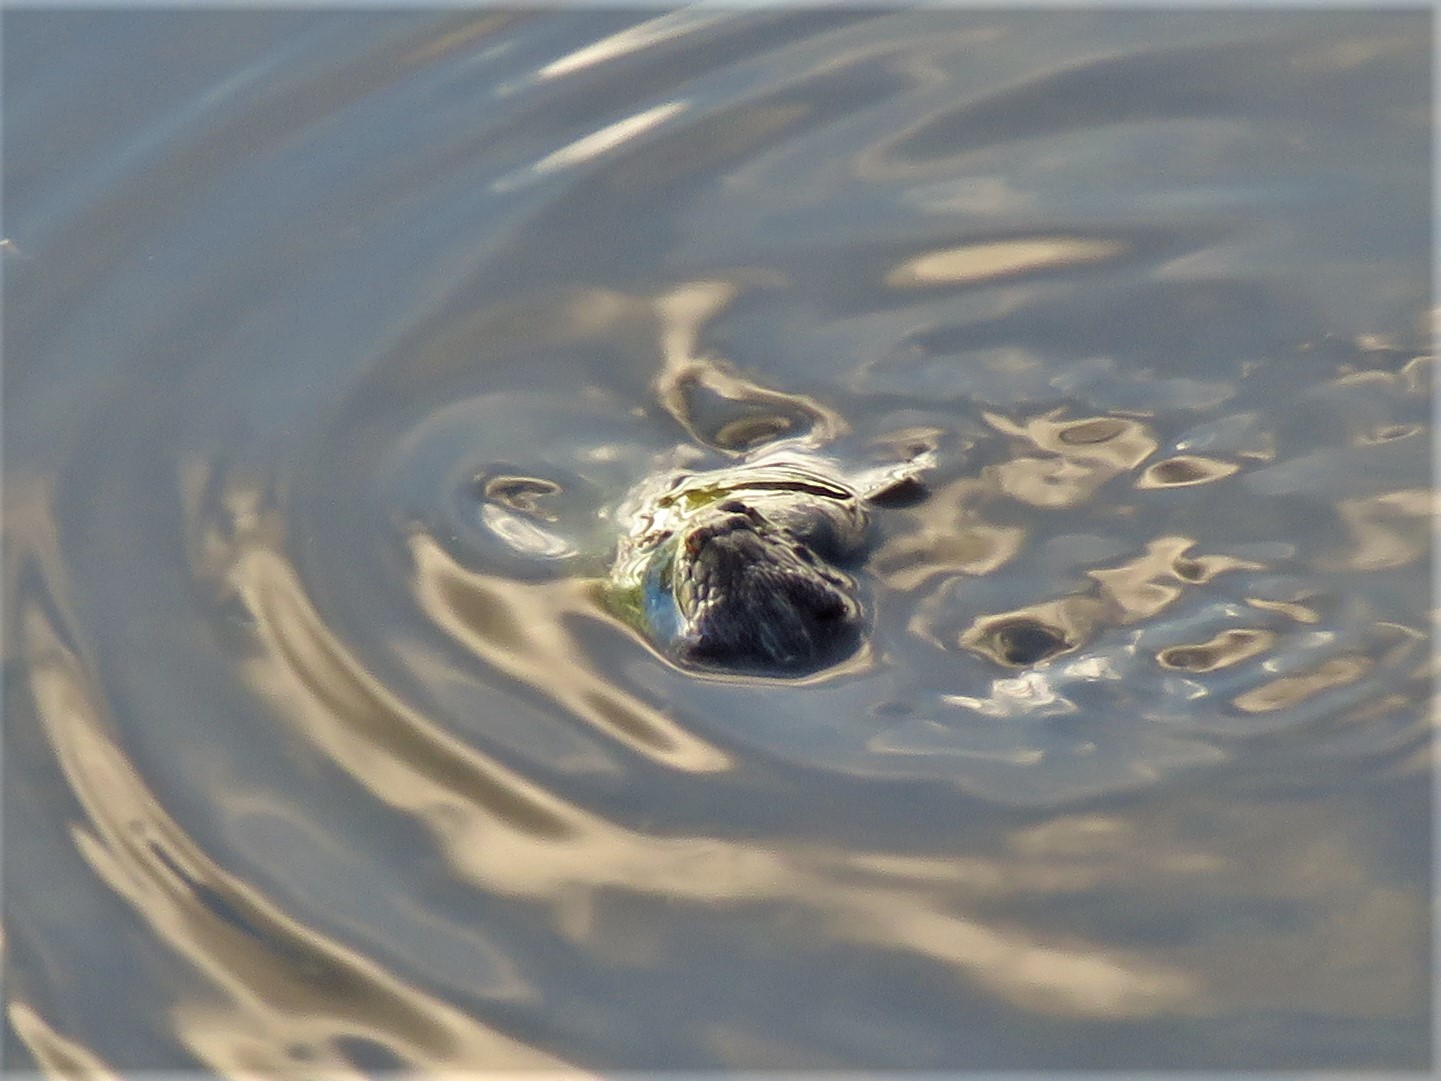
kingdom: Animalia
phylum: Chordata
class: Squamata
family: Colubridae
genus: Nerodia
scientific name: Nerodia rhombifer
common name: Diamondback water snake
